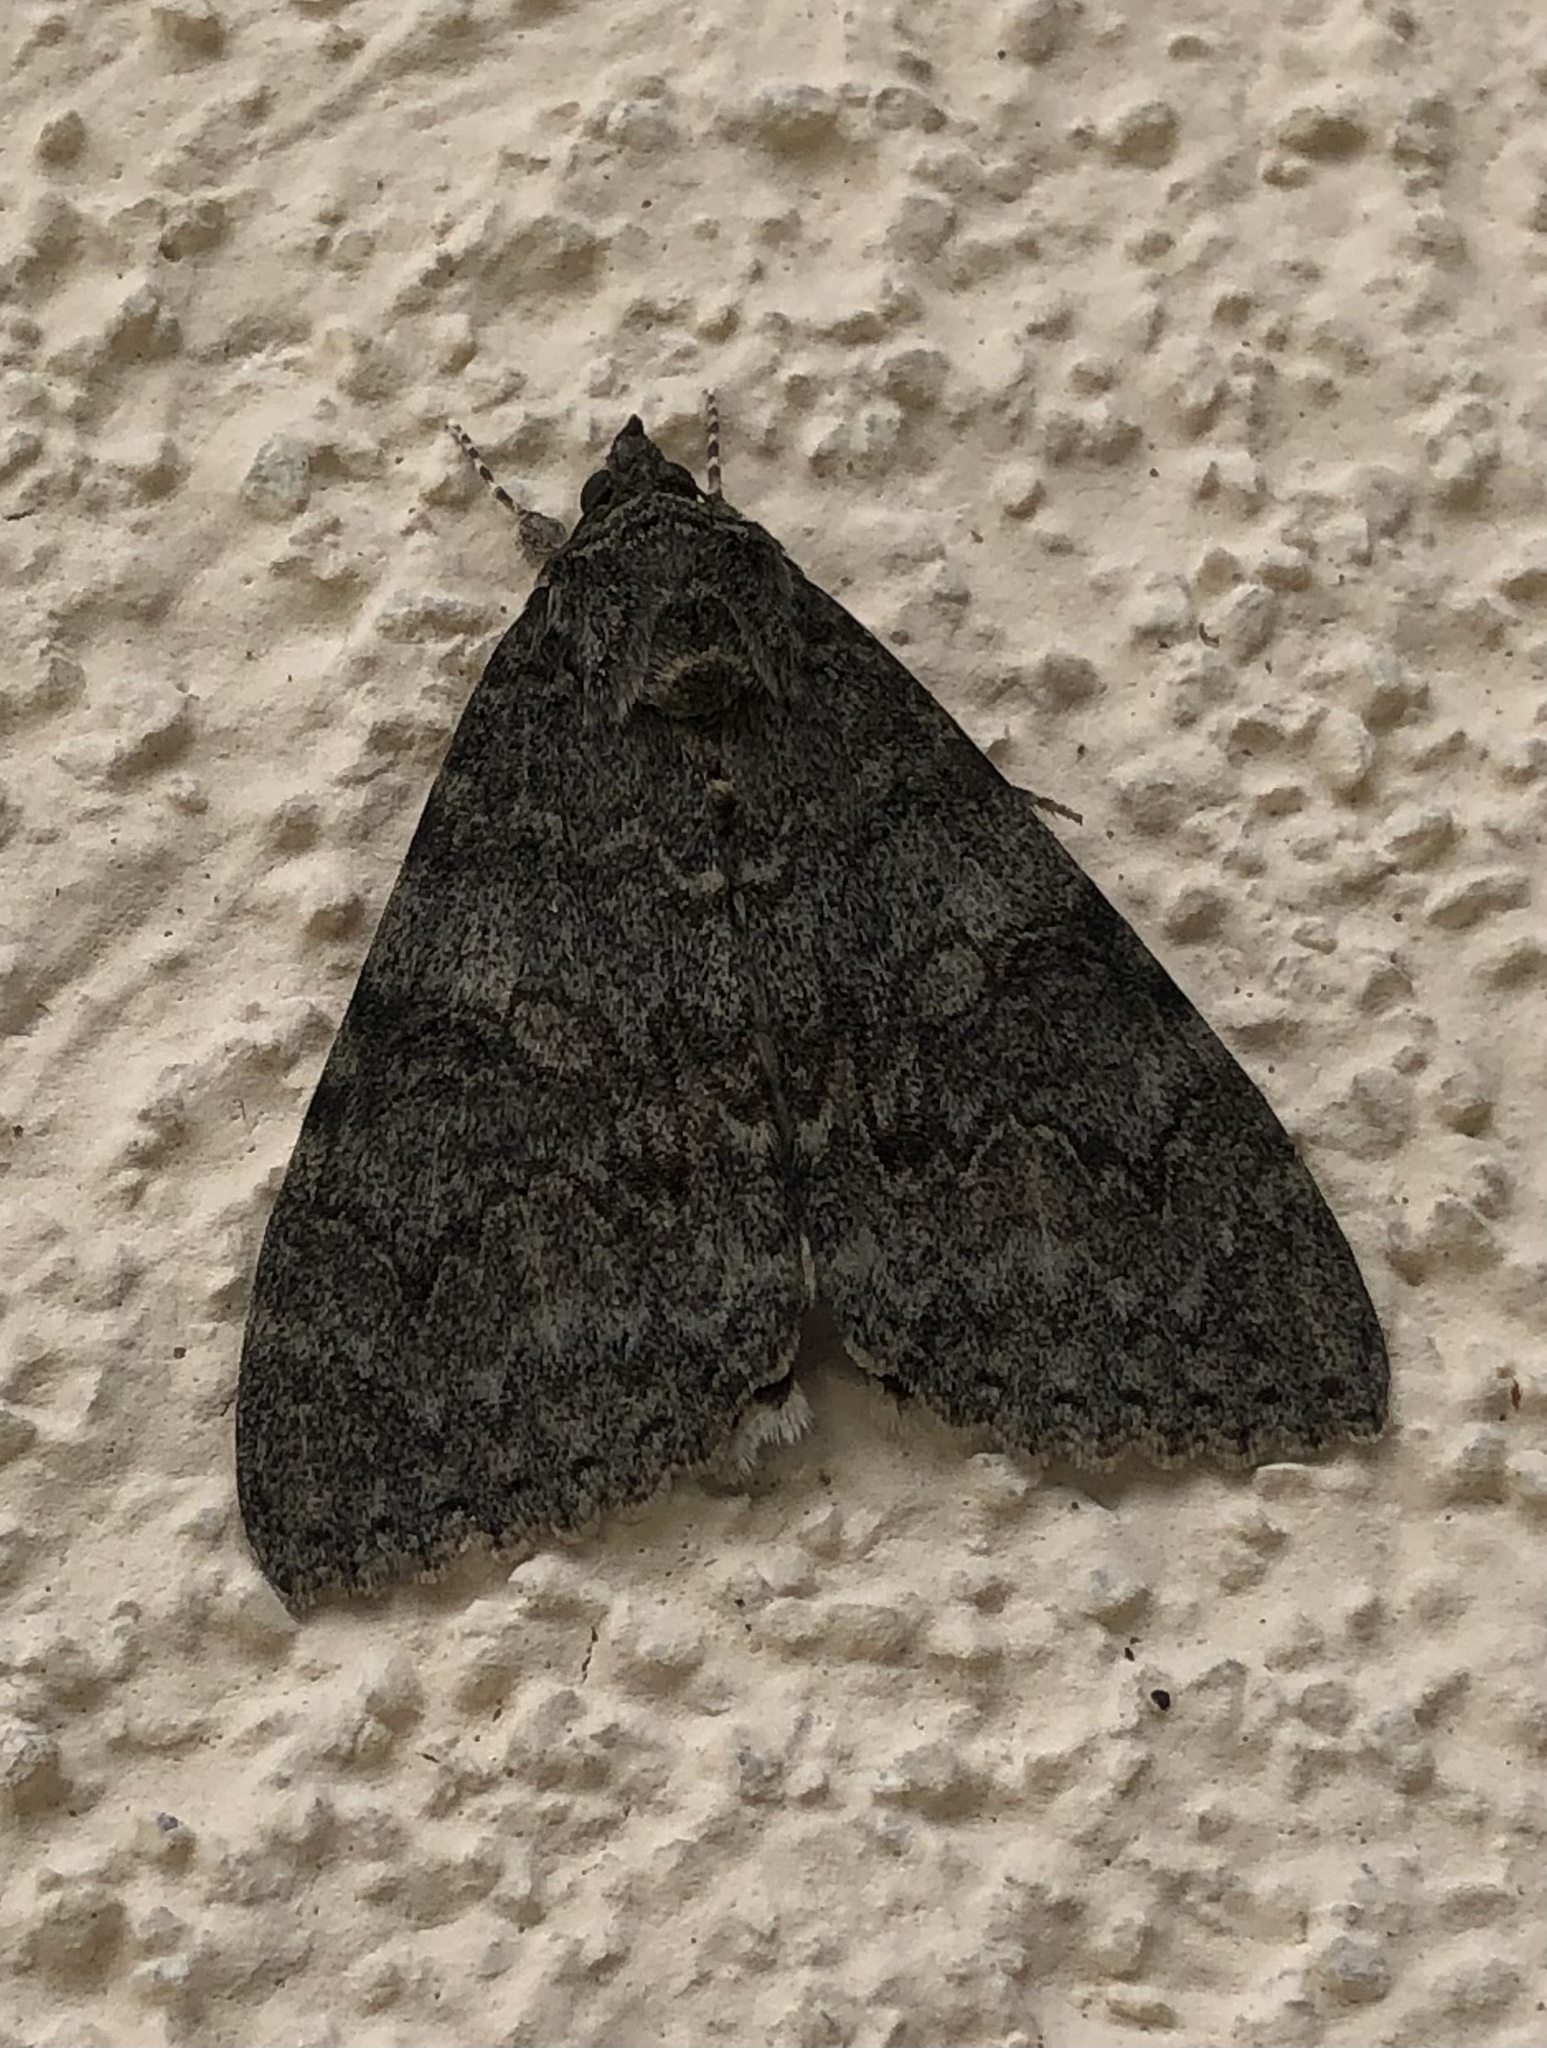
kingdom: Animalia
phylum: Arthropoda
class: Insecta
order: Lepidoptera
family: Erebidae
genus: Catocala
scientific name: Catocala nupta
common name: Red underwing
